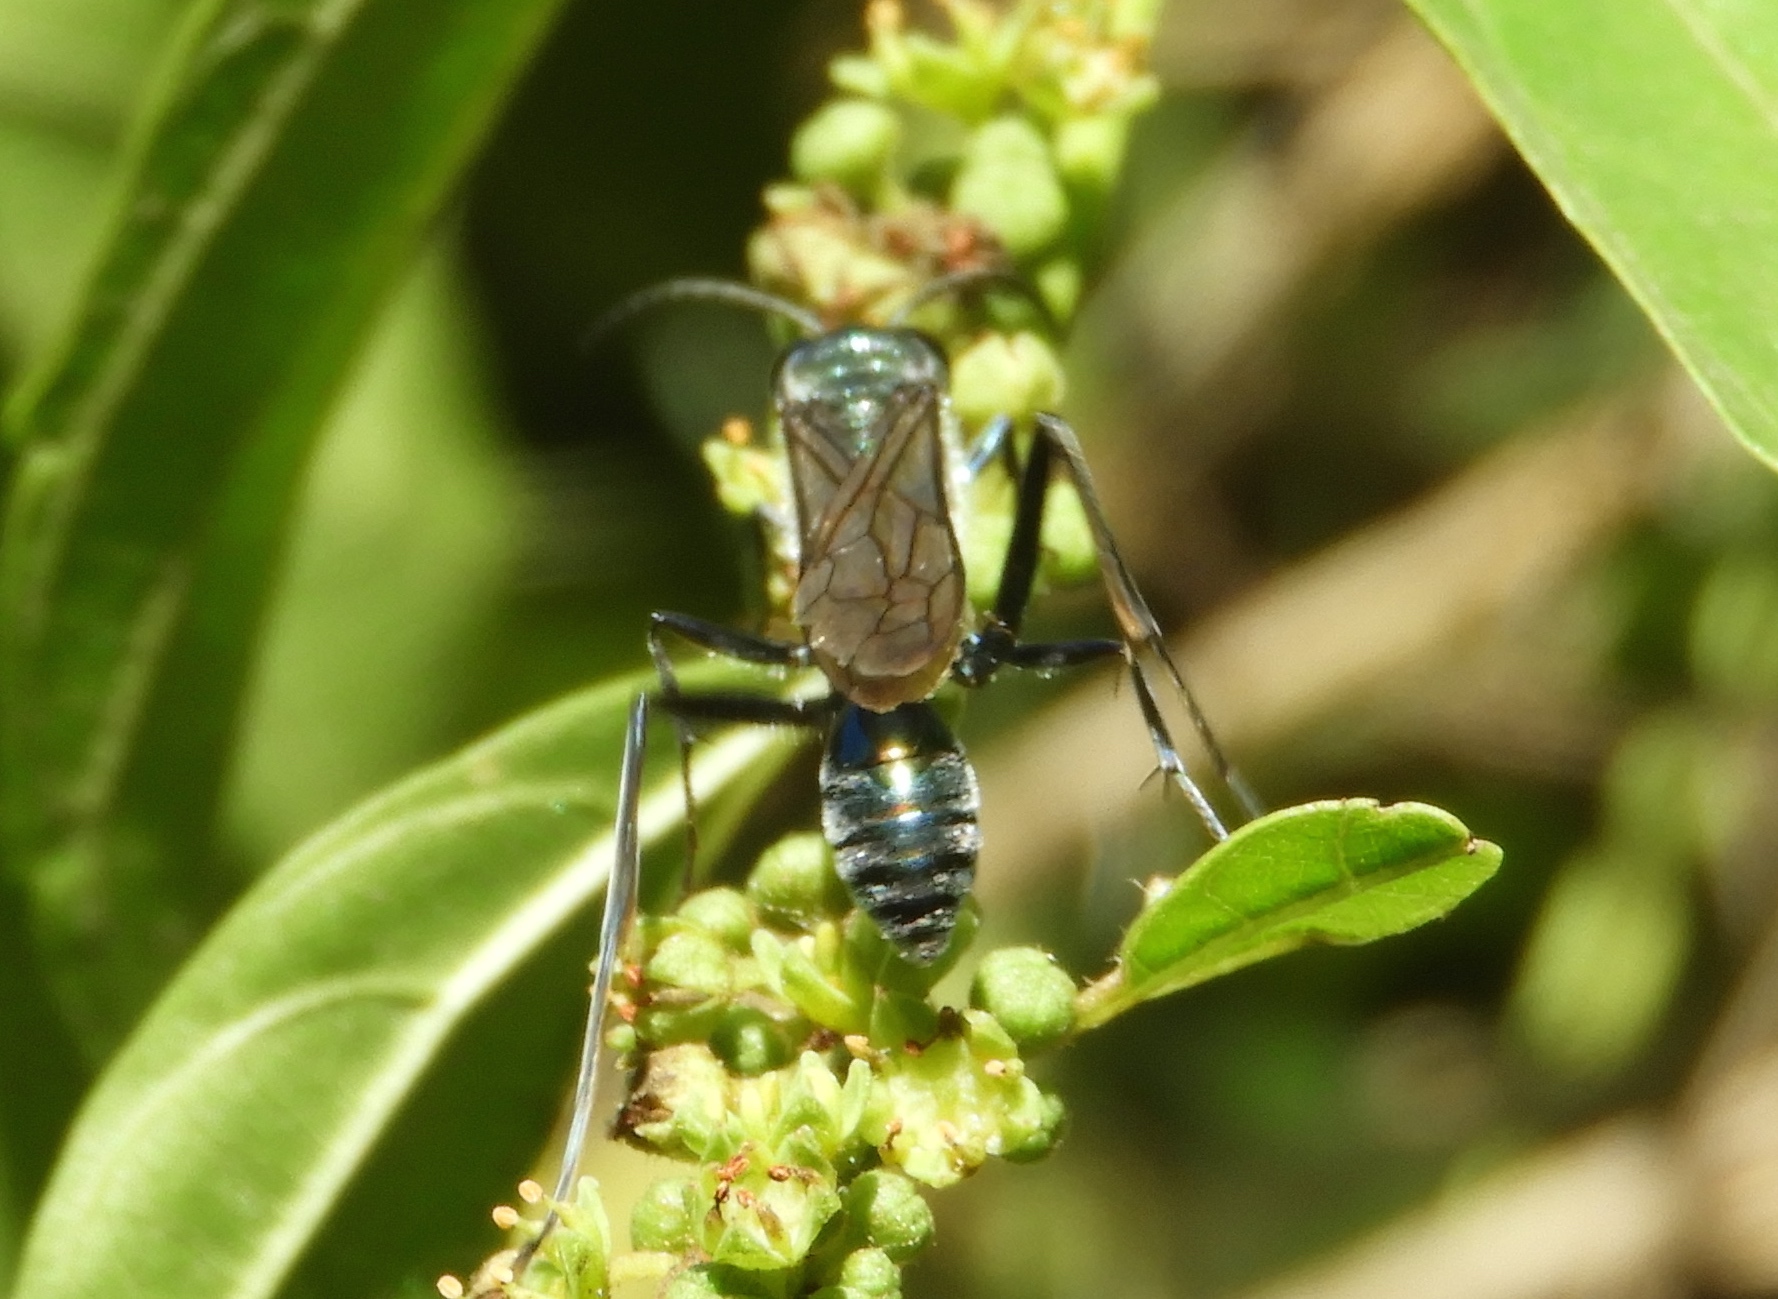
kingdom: Animalia
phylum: Arthropoda
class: Insecta
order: Hymenoptera
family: Sphecidae
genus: Chalybion
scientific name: Chalybion zimmermanni
